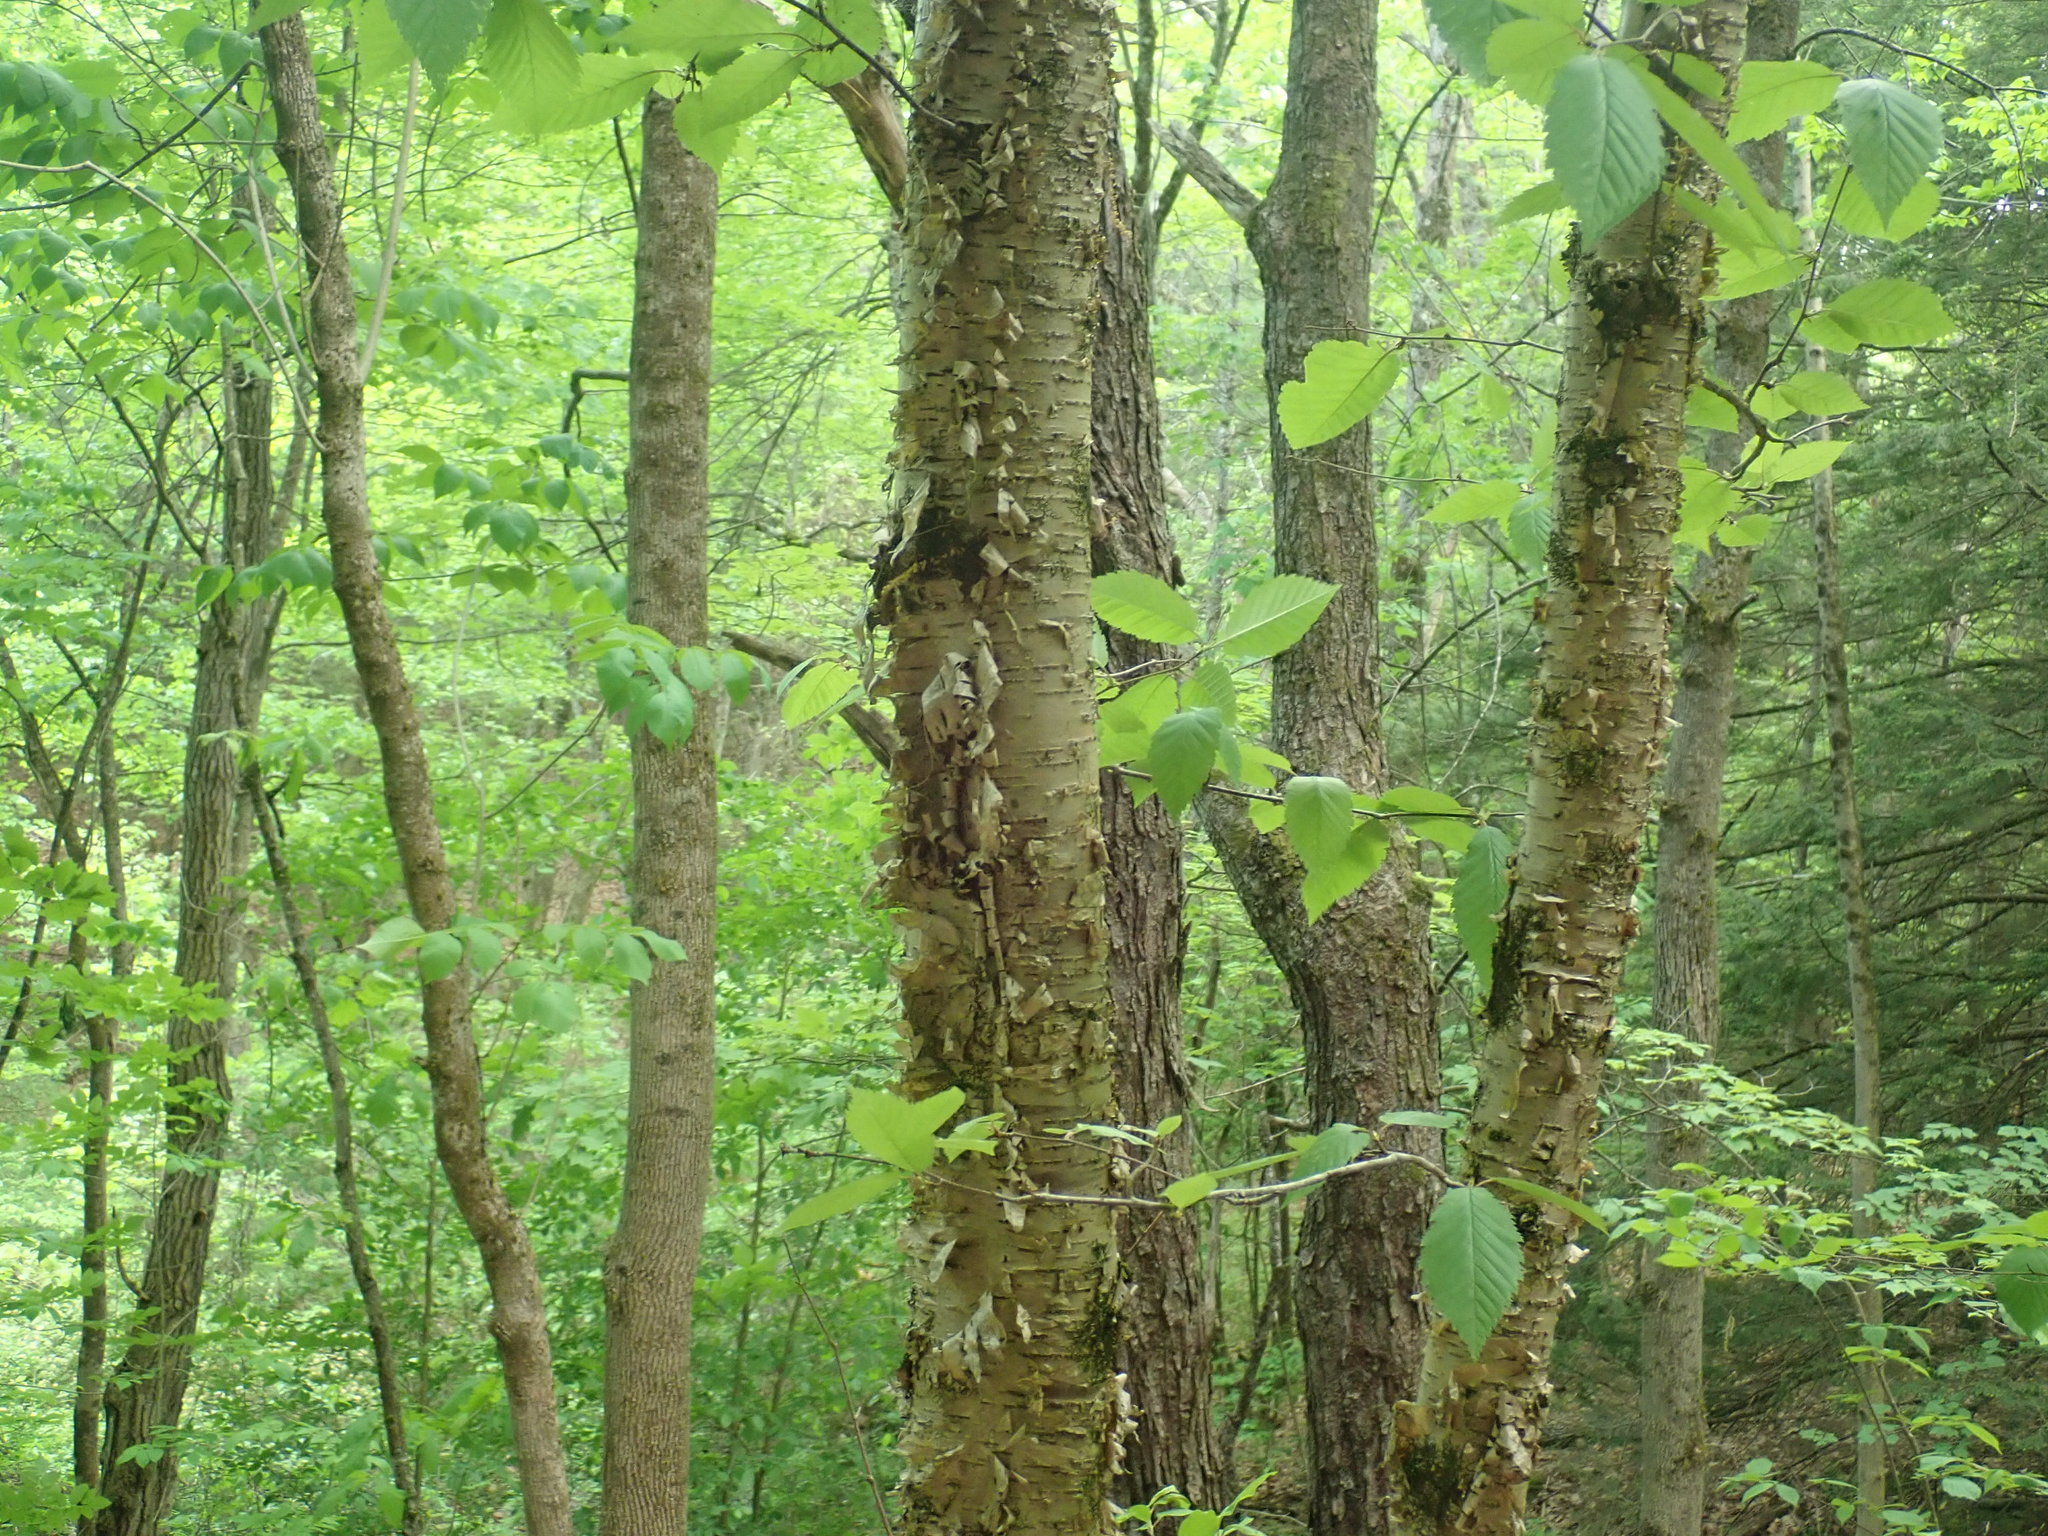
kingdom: Plantae
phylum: Tracheophyta
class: Magnoliopsida
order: Fagales
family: Betulaceae
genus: Betula
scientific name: Betula alleghaniensis
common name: Yellow birch
